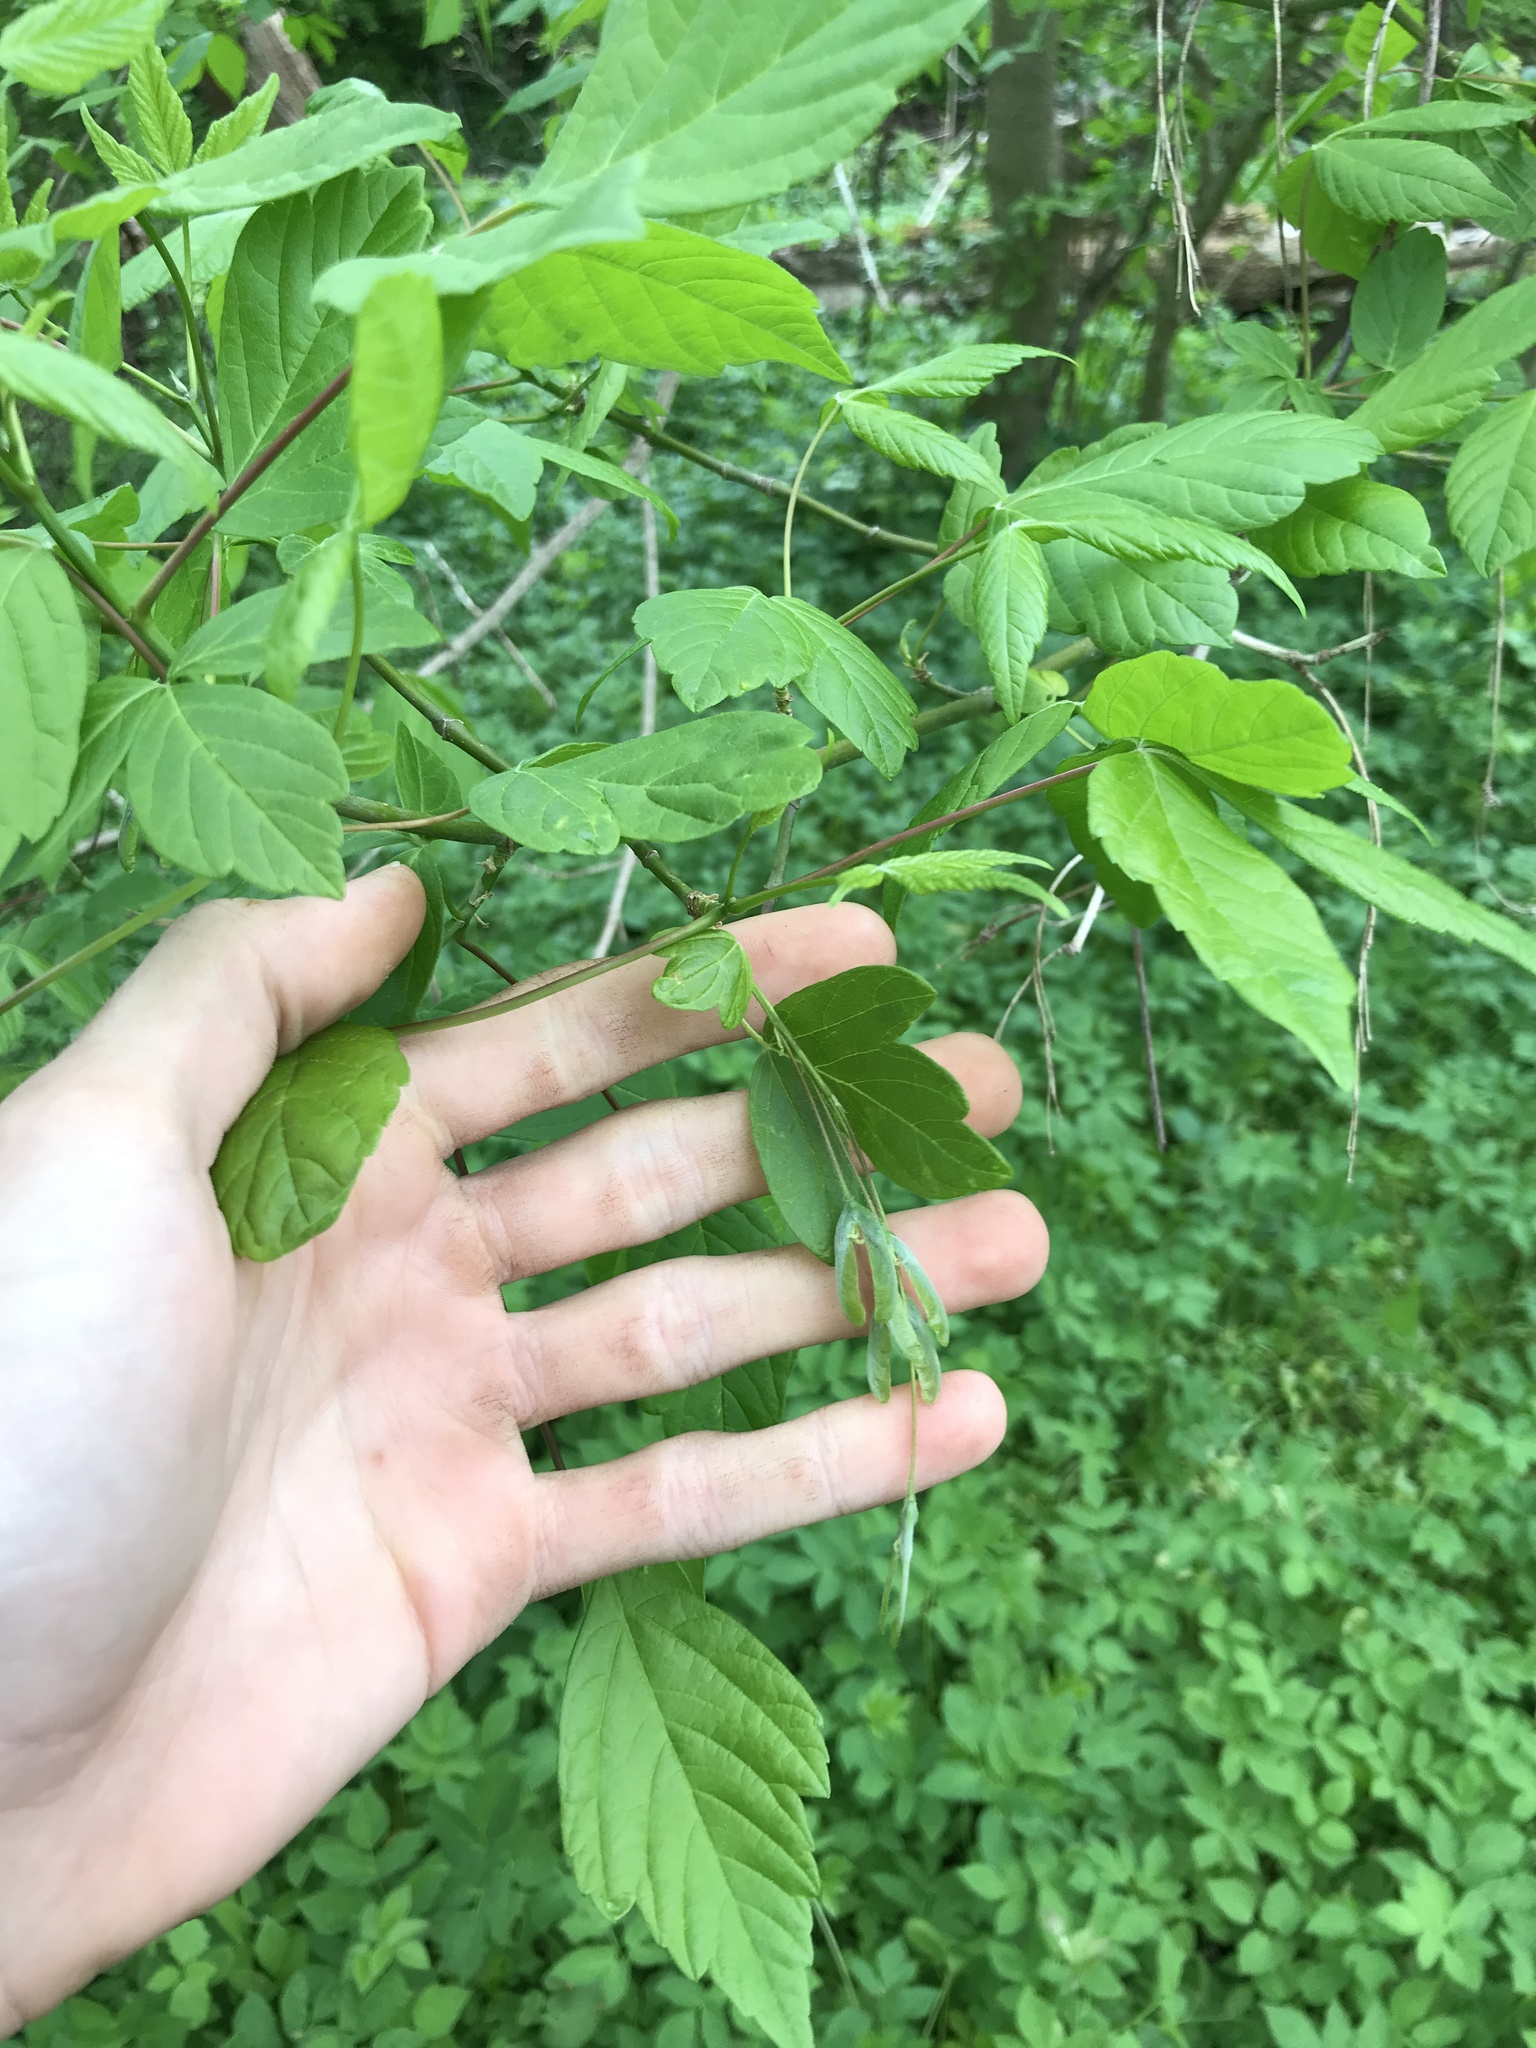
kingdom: Plantae
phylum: Tracheophyta
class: Magnoliopsida
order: Sapindales
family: Sapindaceae
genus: Acer
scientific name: Acer negundo
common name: Ashleaf maple
